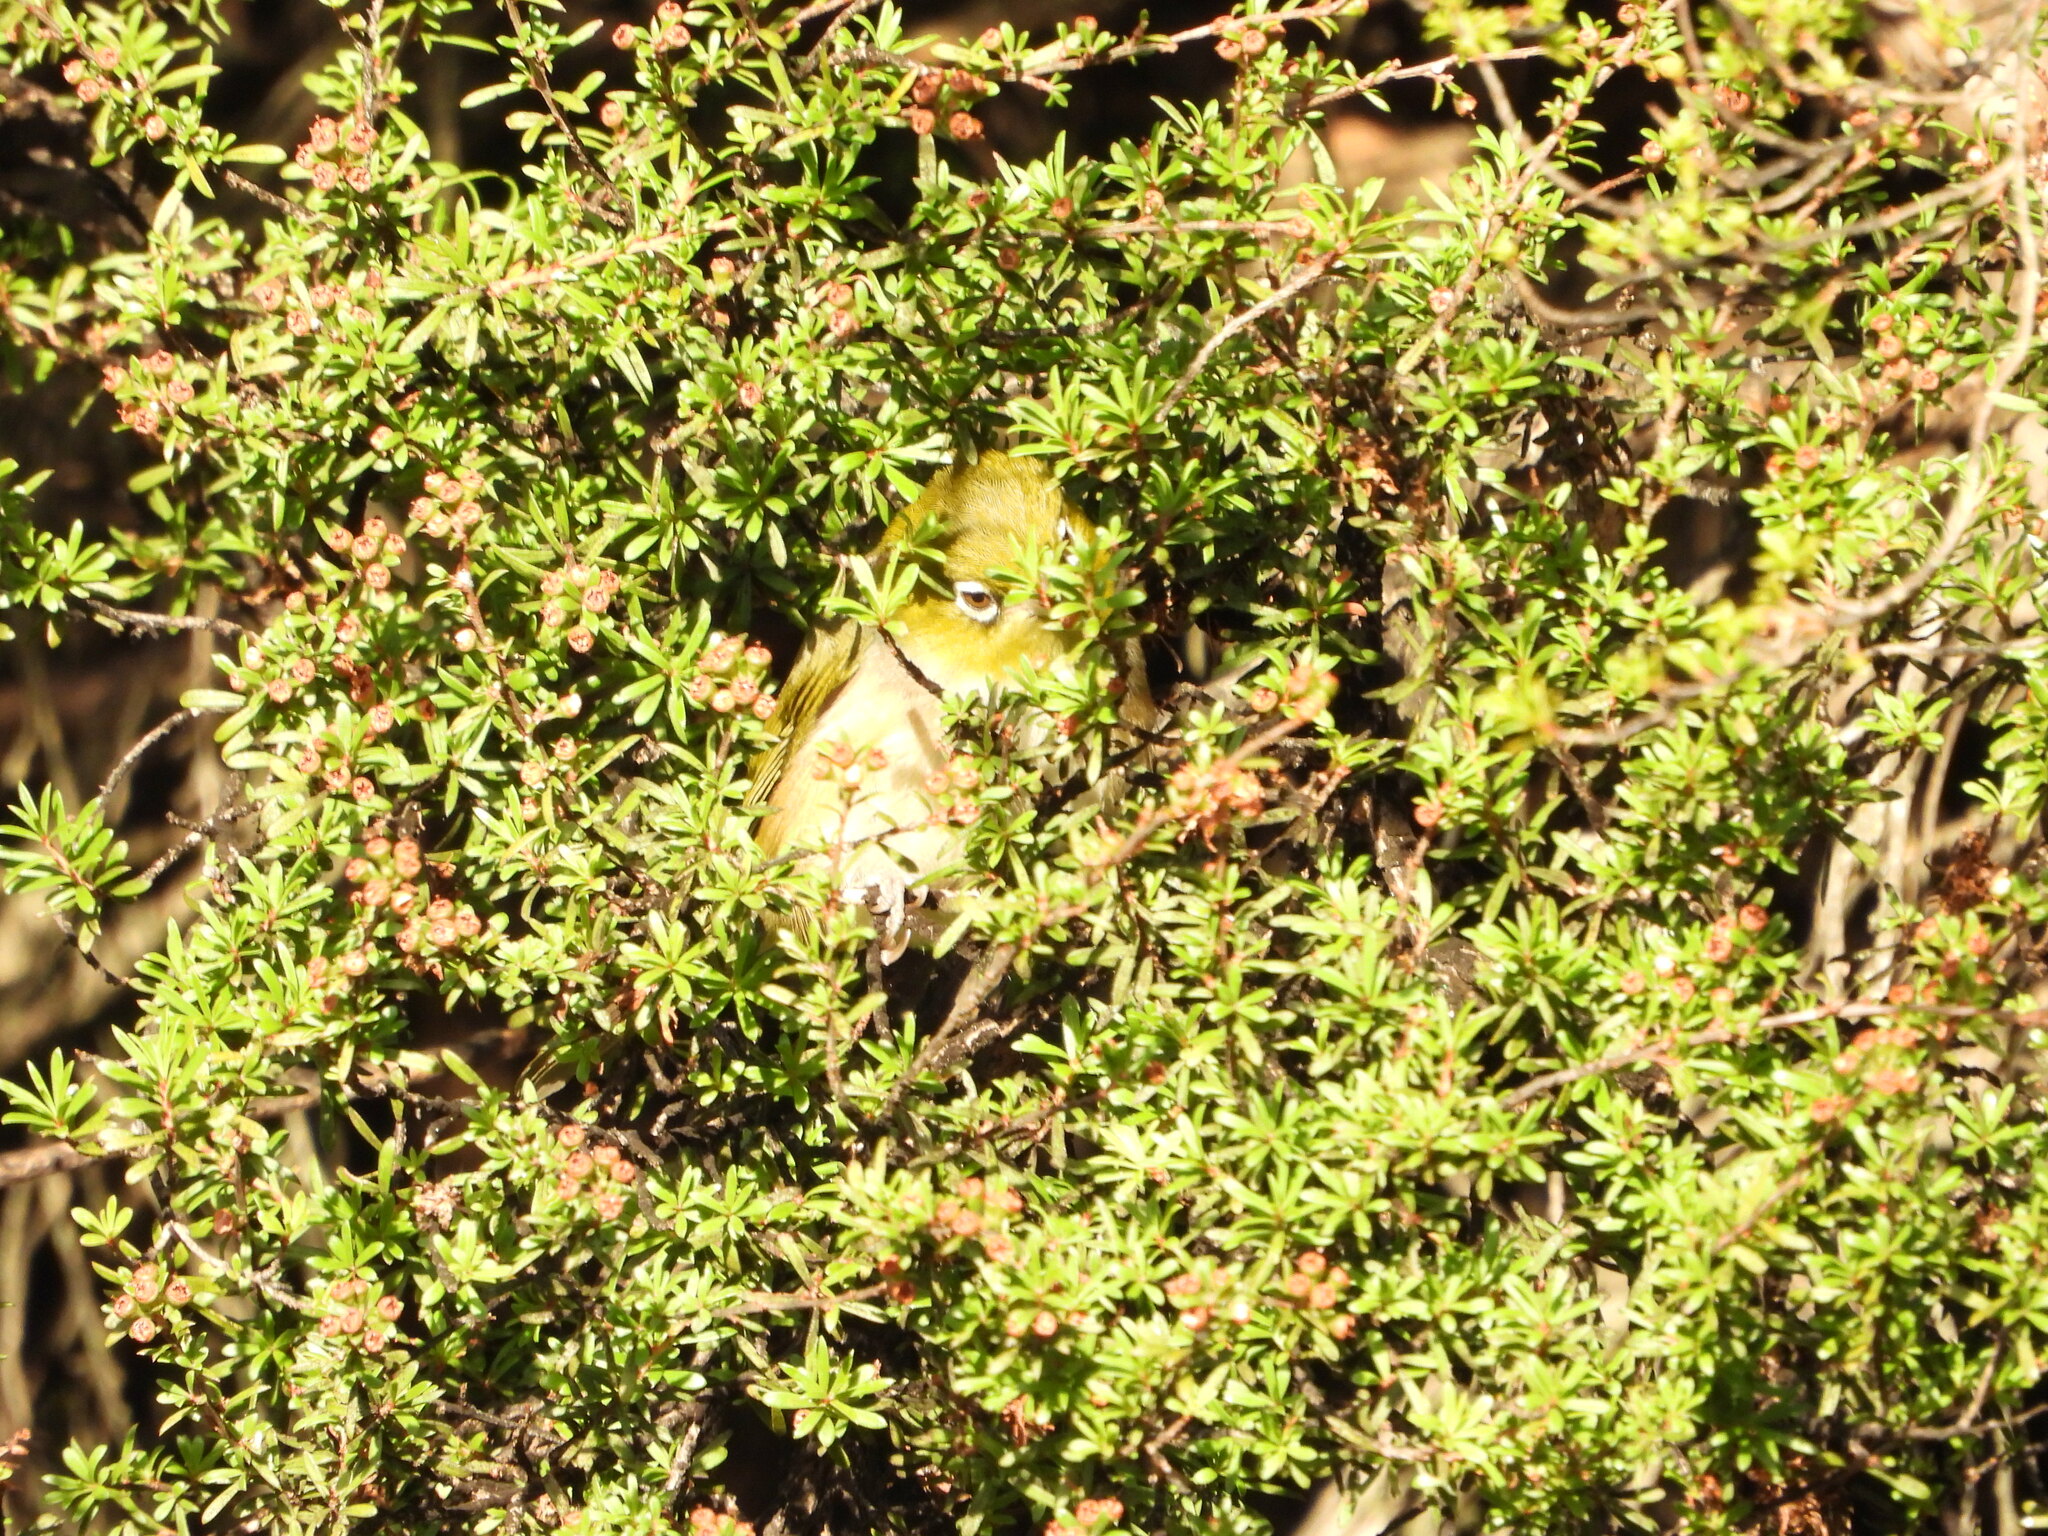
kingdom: Animalia
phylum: Chordata
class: Aves
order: Passeriformes
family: Zosteropidae
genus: Zosterops
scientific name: Zosterops lateralis
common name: Silvereye
